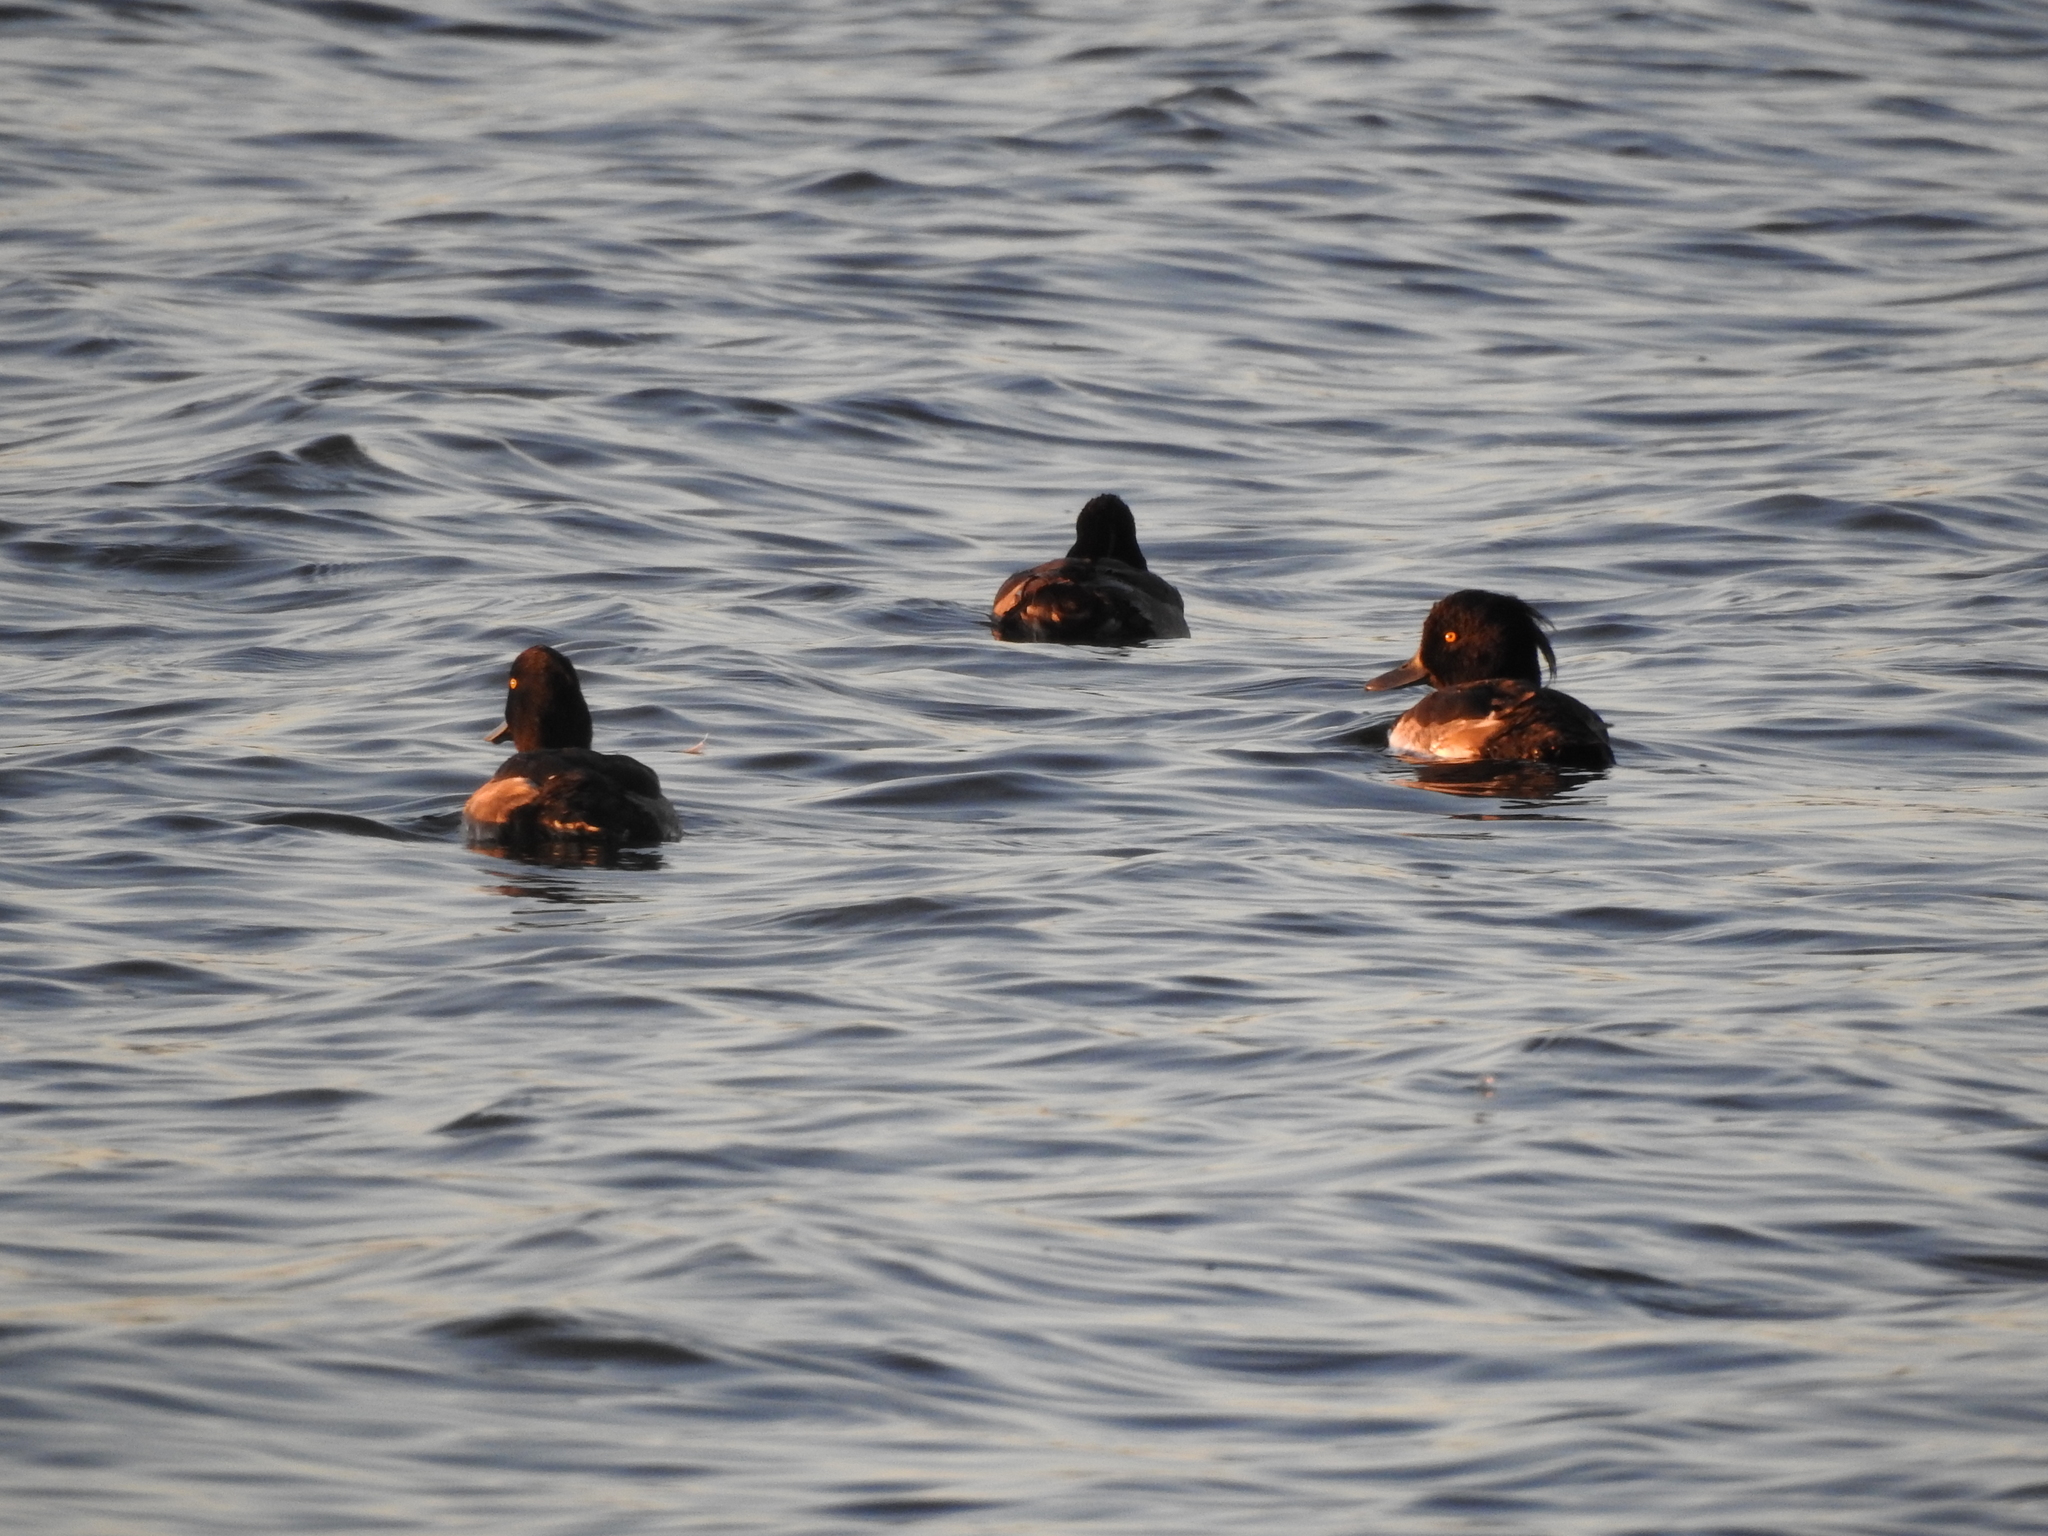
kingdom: Animalia
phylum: Chordata
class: Aves
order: Anseriformes
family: Anatidae
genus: Aythya
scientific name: Aythya fuligula
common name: Tufted duck
